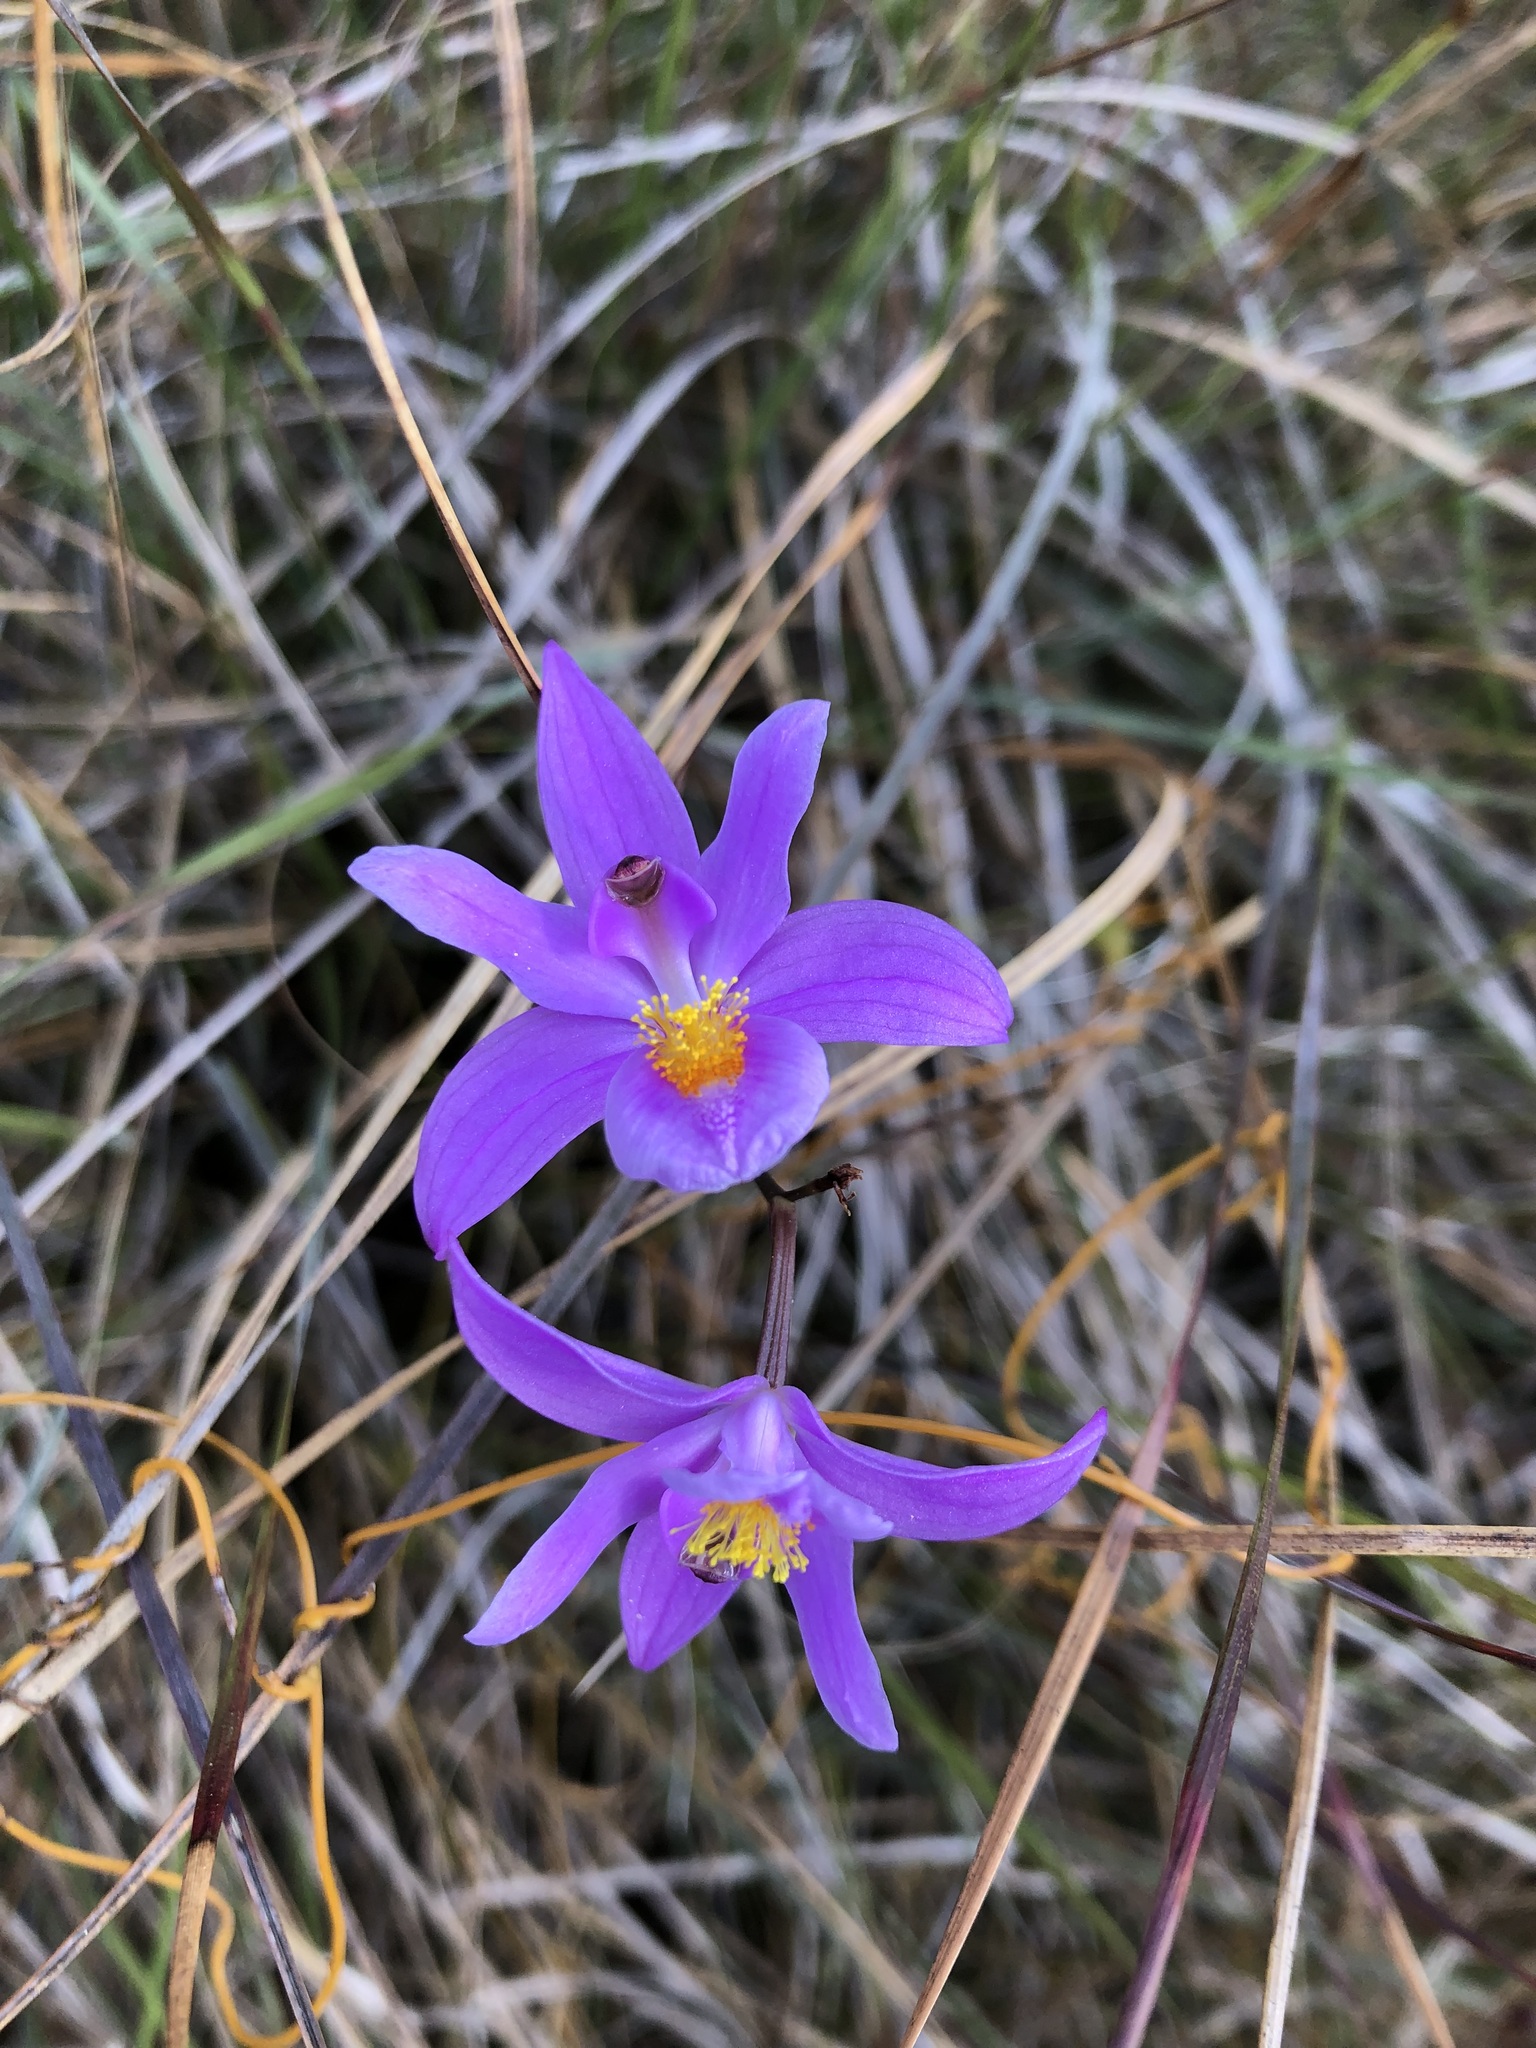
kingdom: Plantae
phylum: Tracheophyta
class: Liliopsida
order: Asparagales
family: Orchidaceae
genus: Calopogon
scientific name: Calopogon barbatus
